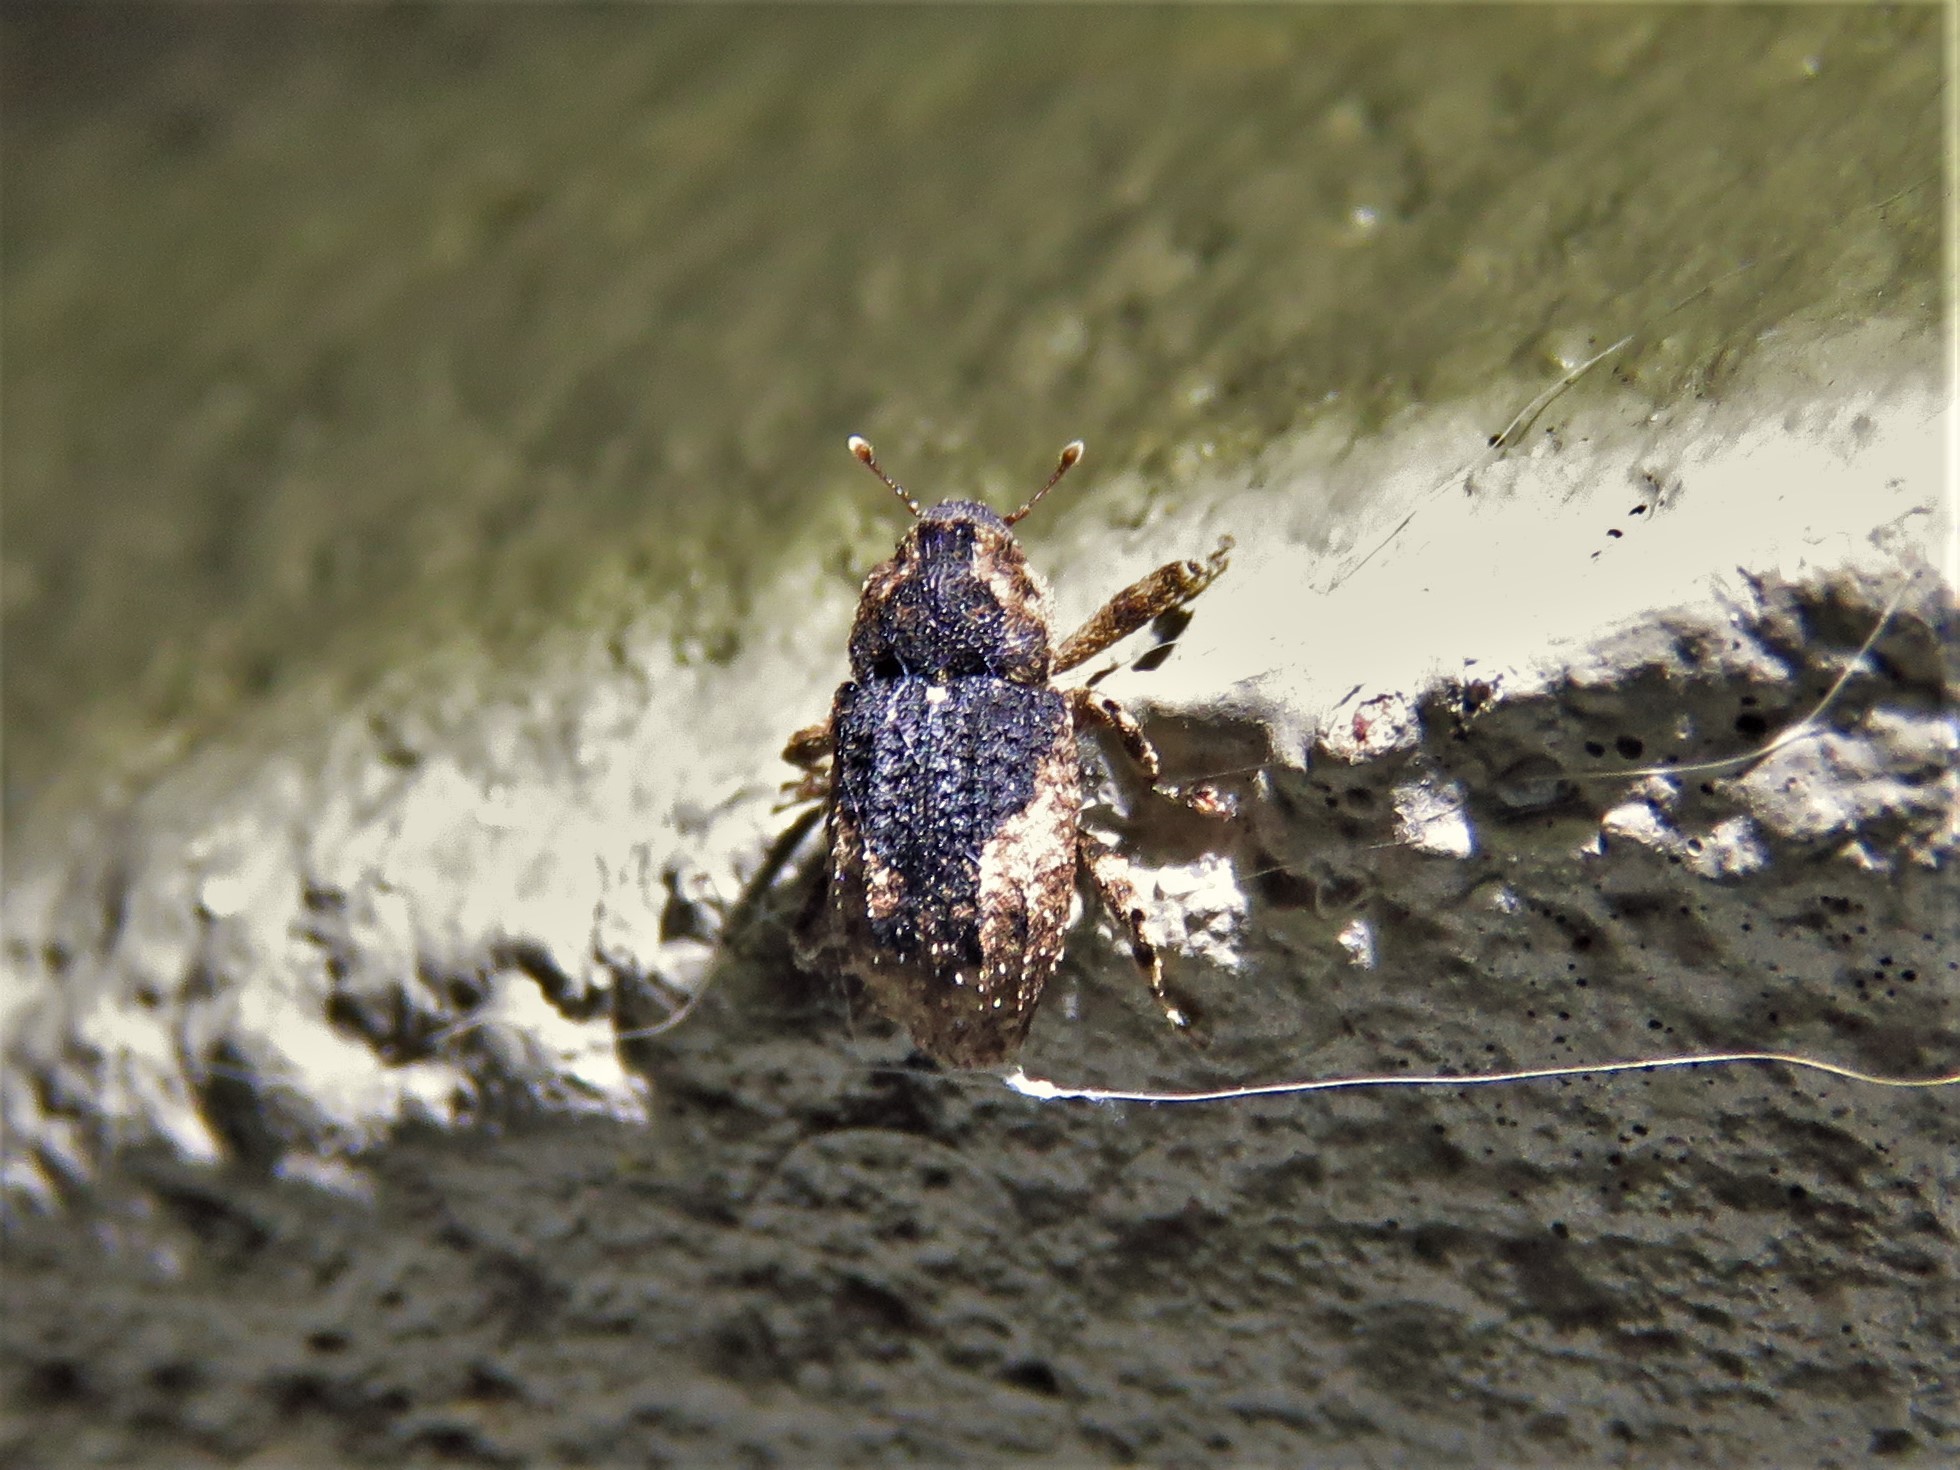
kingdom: Animalia
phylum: Arthropoda
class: Insecta
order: Coleoptera
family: Curculionidae
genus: Cophes
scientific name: Cophes fallax
